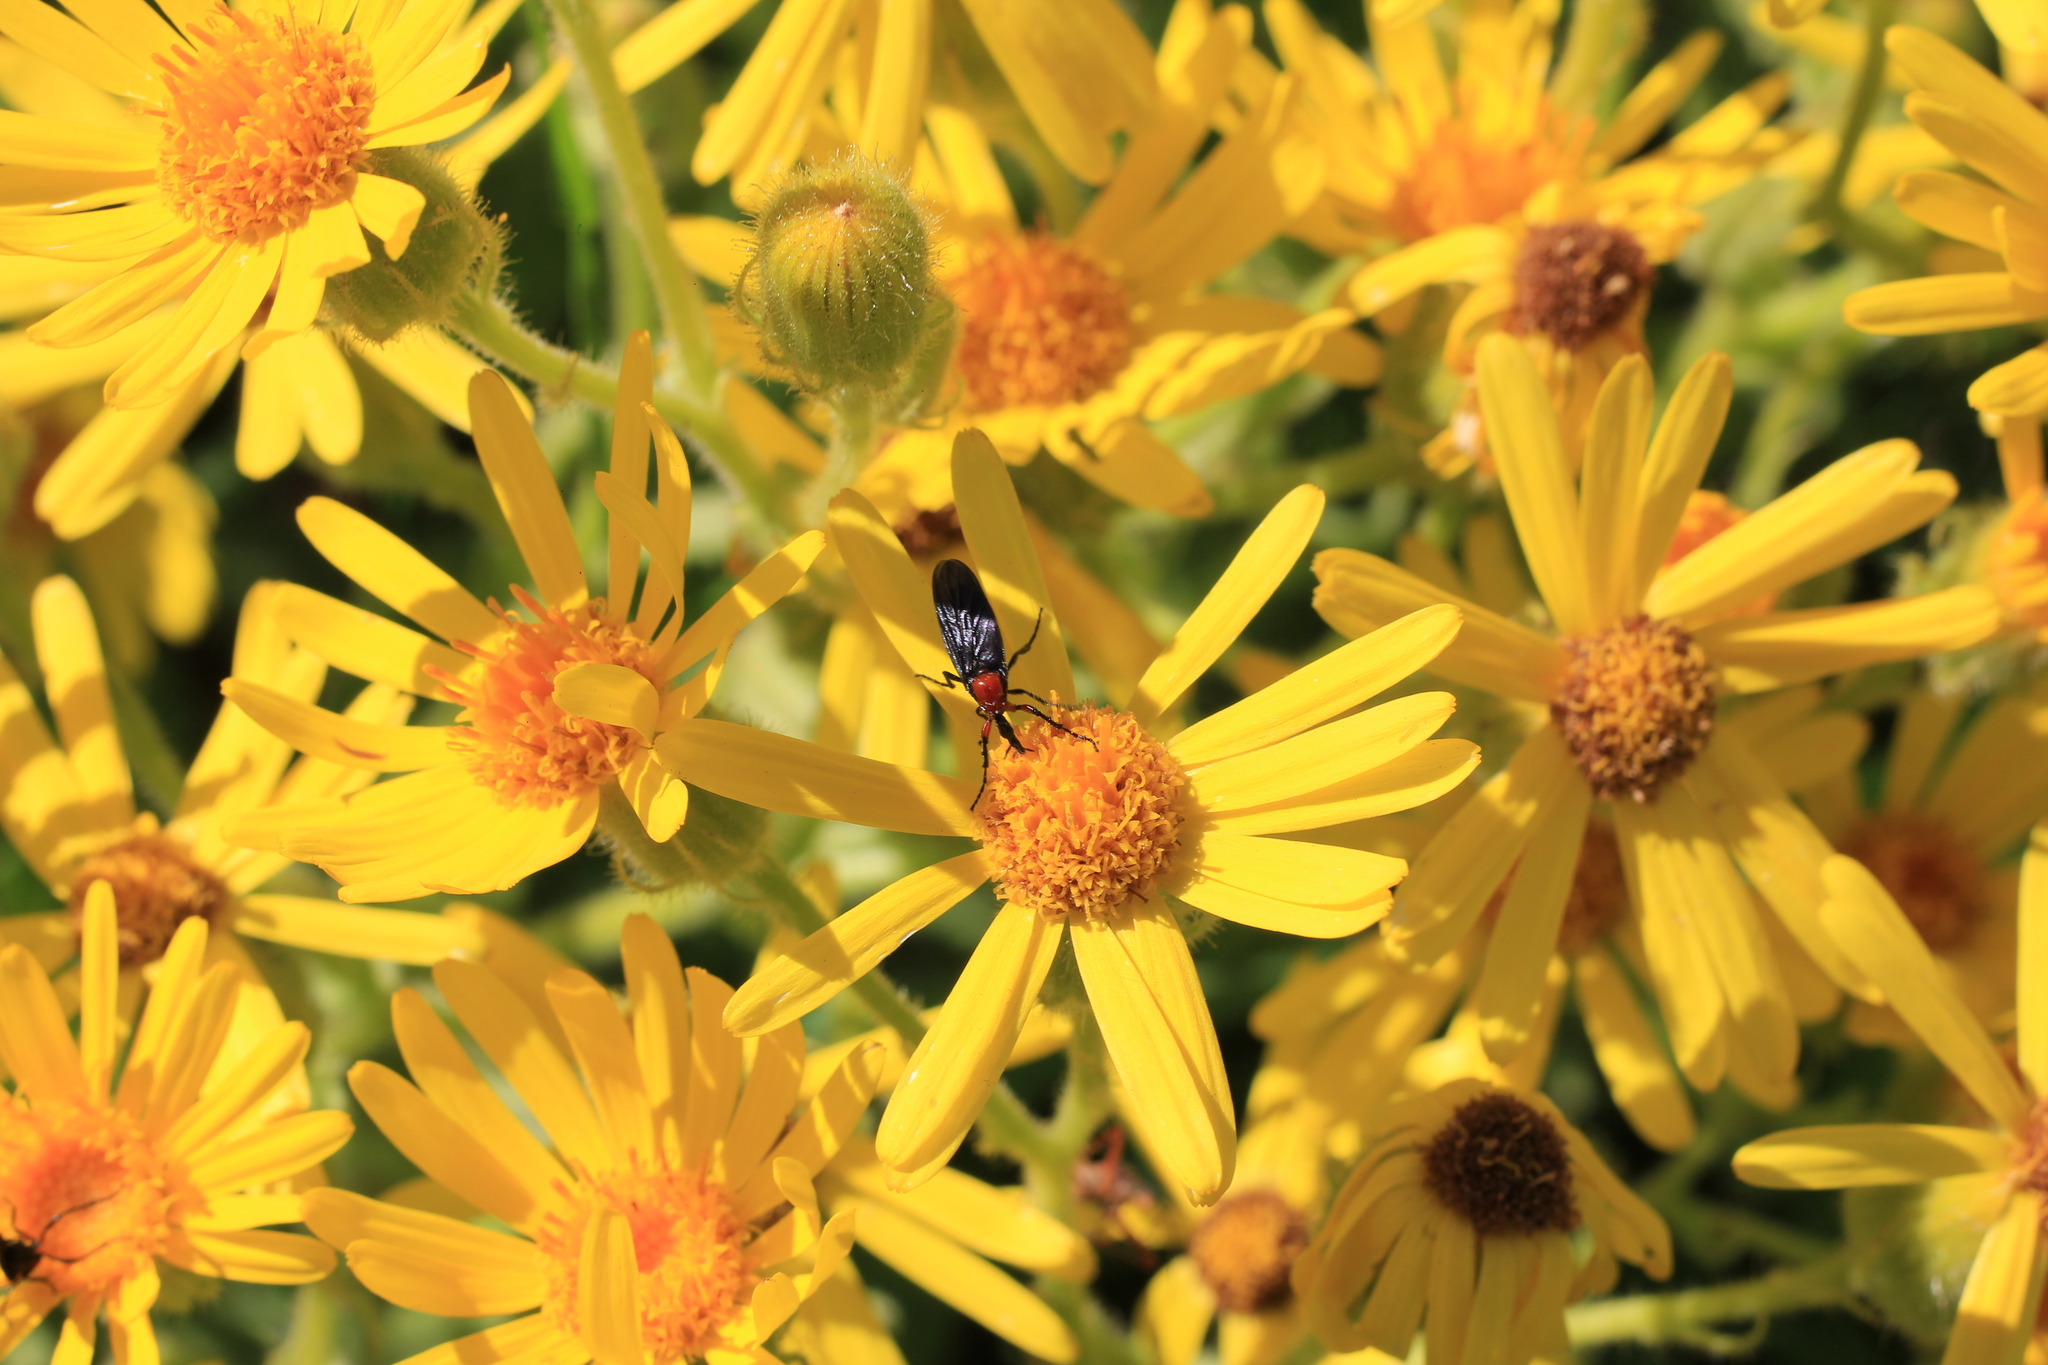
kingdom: Animalia
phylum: Arthropoda
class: Insecta
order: Diptera
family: Bibionidae
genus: Dilophus
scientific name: Dilophus pectoralis
